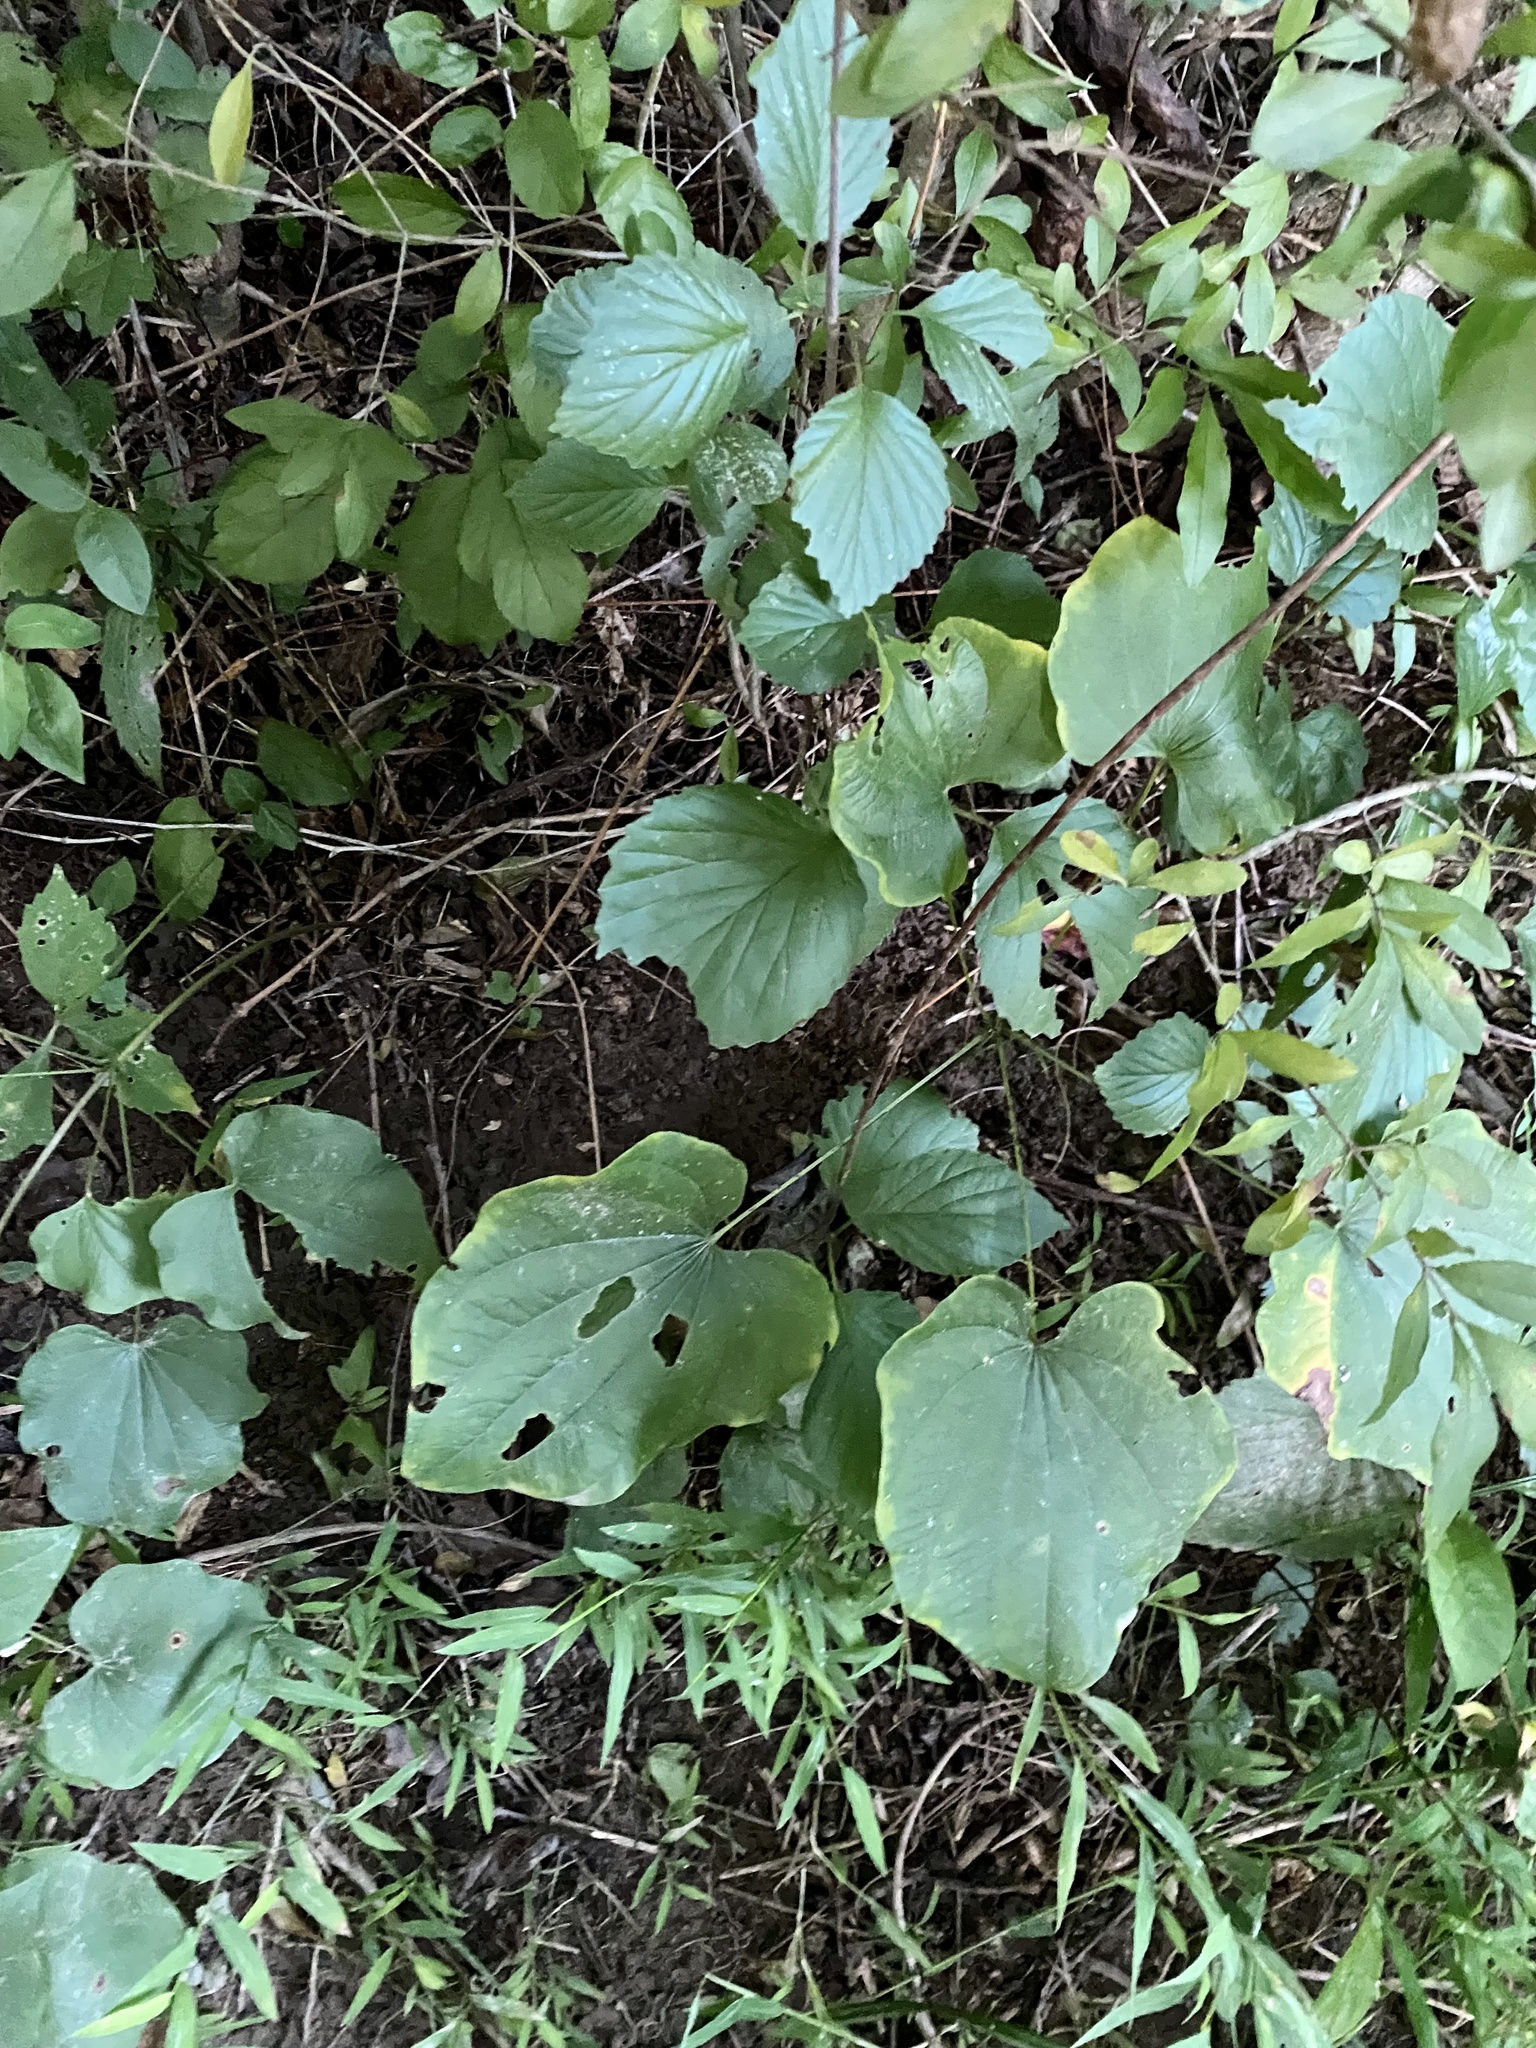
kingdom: Plantae
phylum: Tracheophyta
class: Liliopsida
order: Dioscoreales
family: Dioscoreaceae
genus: Dioscorea
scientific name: Dioscorea villosa
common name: Wild yam
